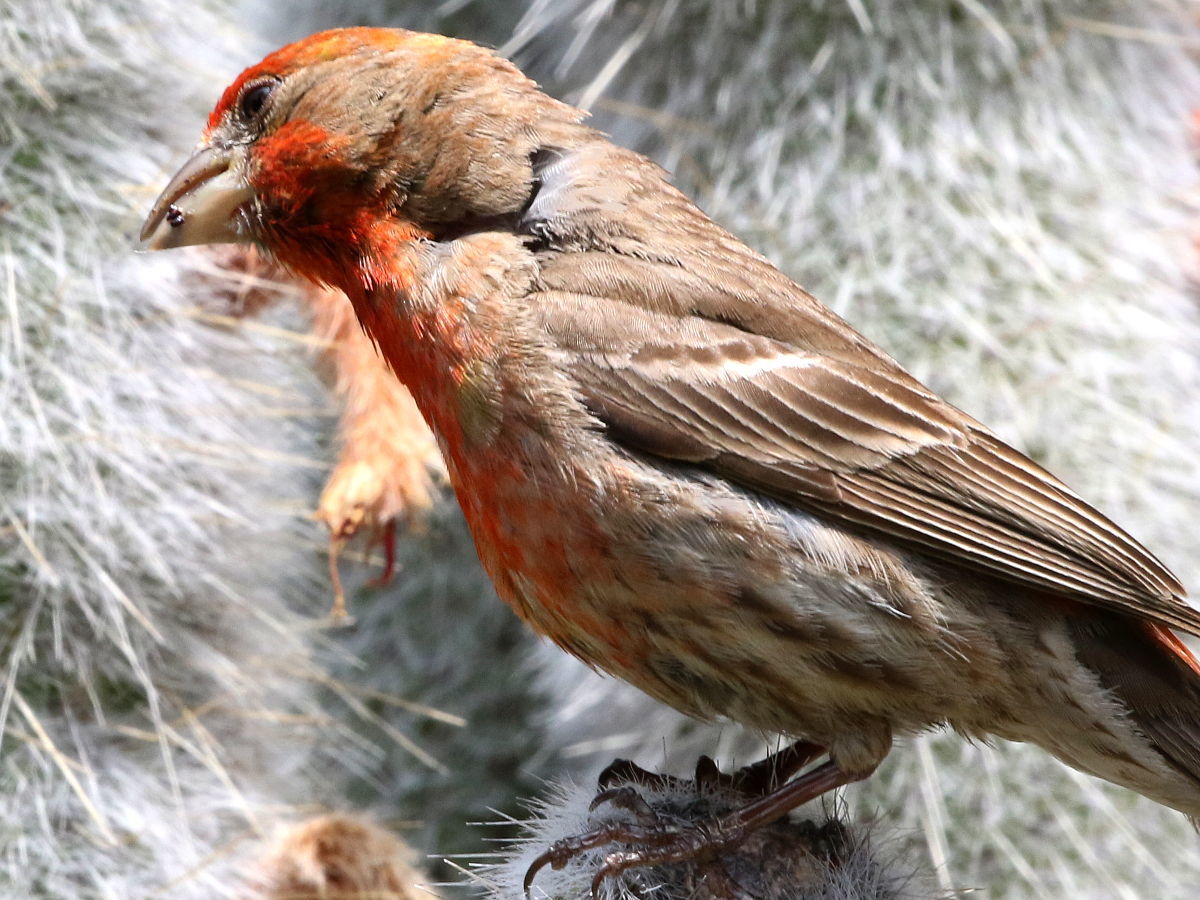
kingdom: Animalia
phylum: Chordata
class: Aves
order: Passeriformes
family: Fringillidae
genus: Haemorhous
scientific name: Haemorhous mexicanus
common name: House finch
